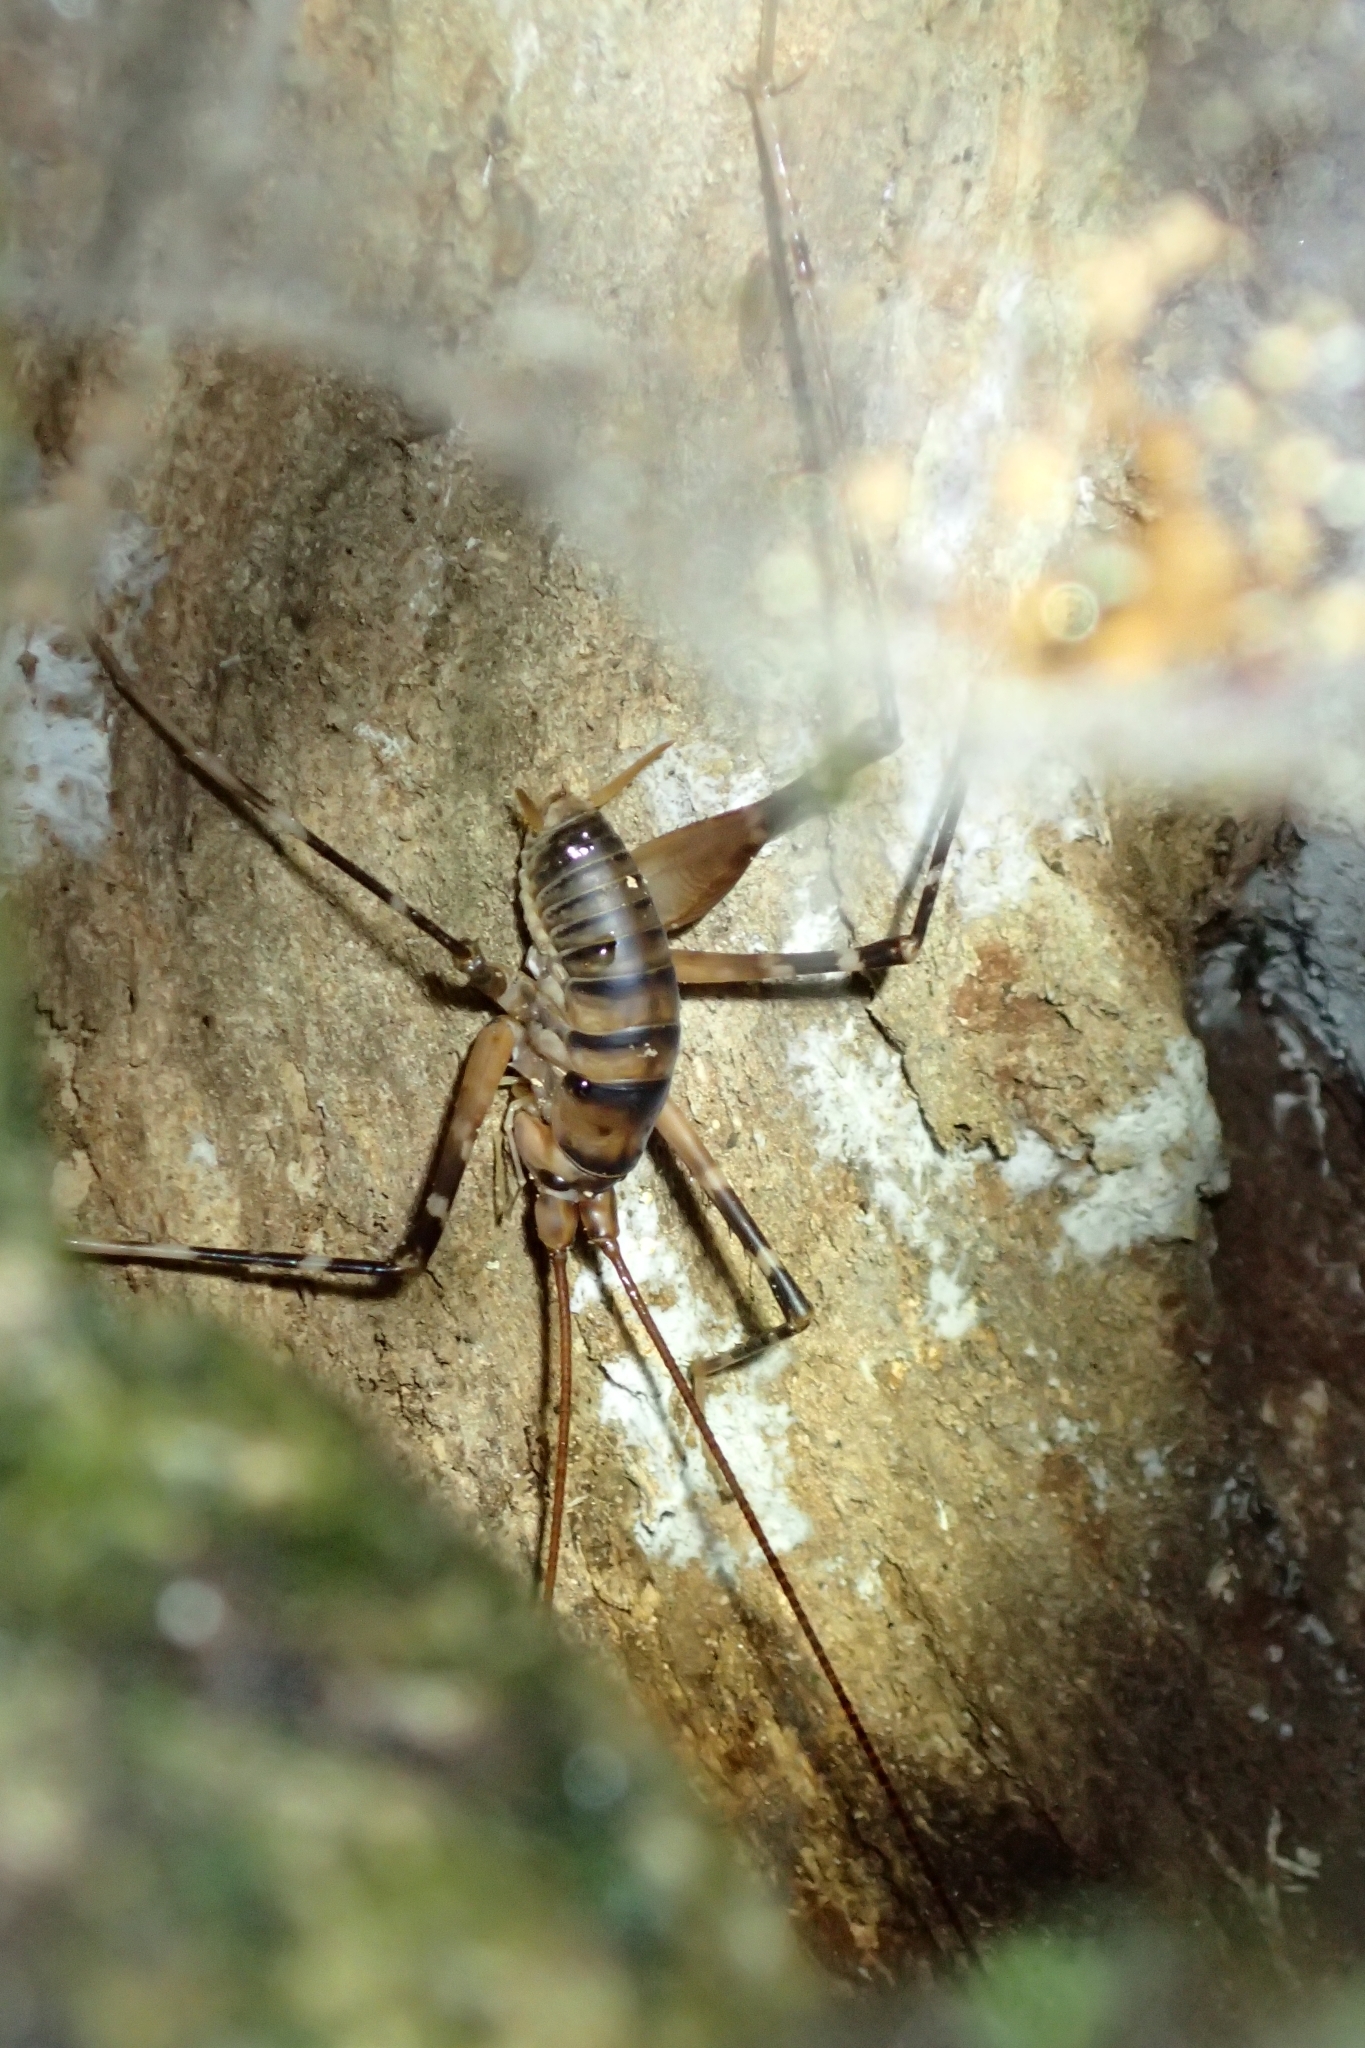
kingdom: Animalia
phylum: Arthropoda
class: Insecta
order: Orthoptera
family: Rhaphidophoridae
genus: Pachyrhamma
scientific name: Pachyrhamma edwardsii
